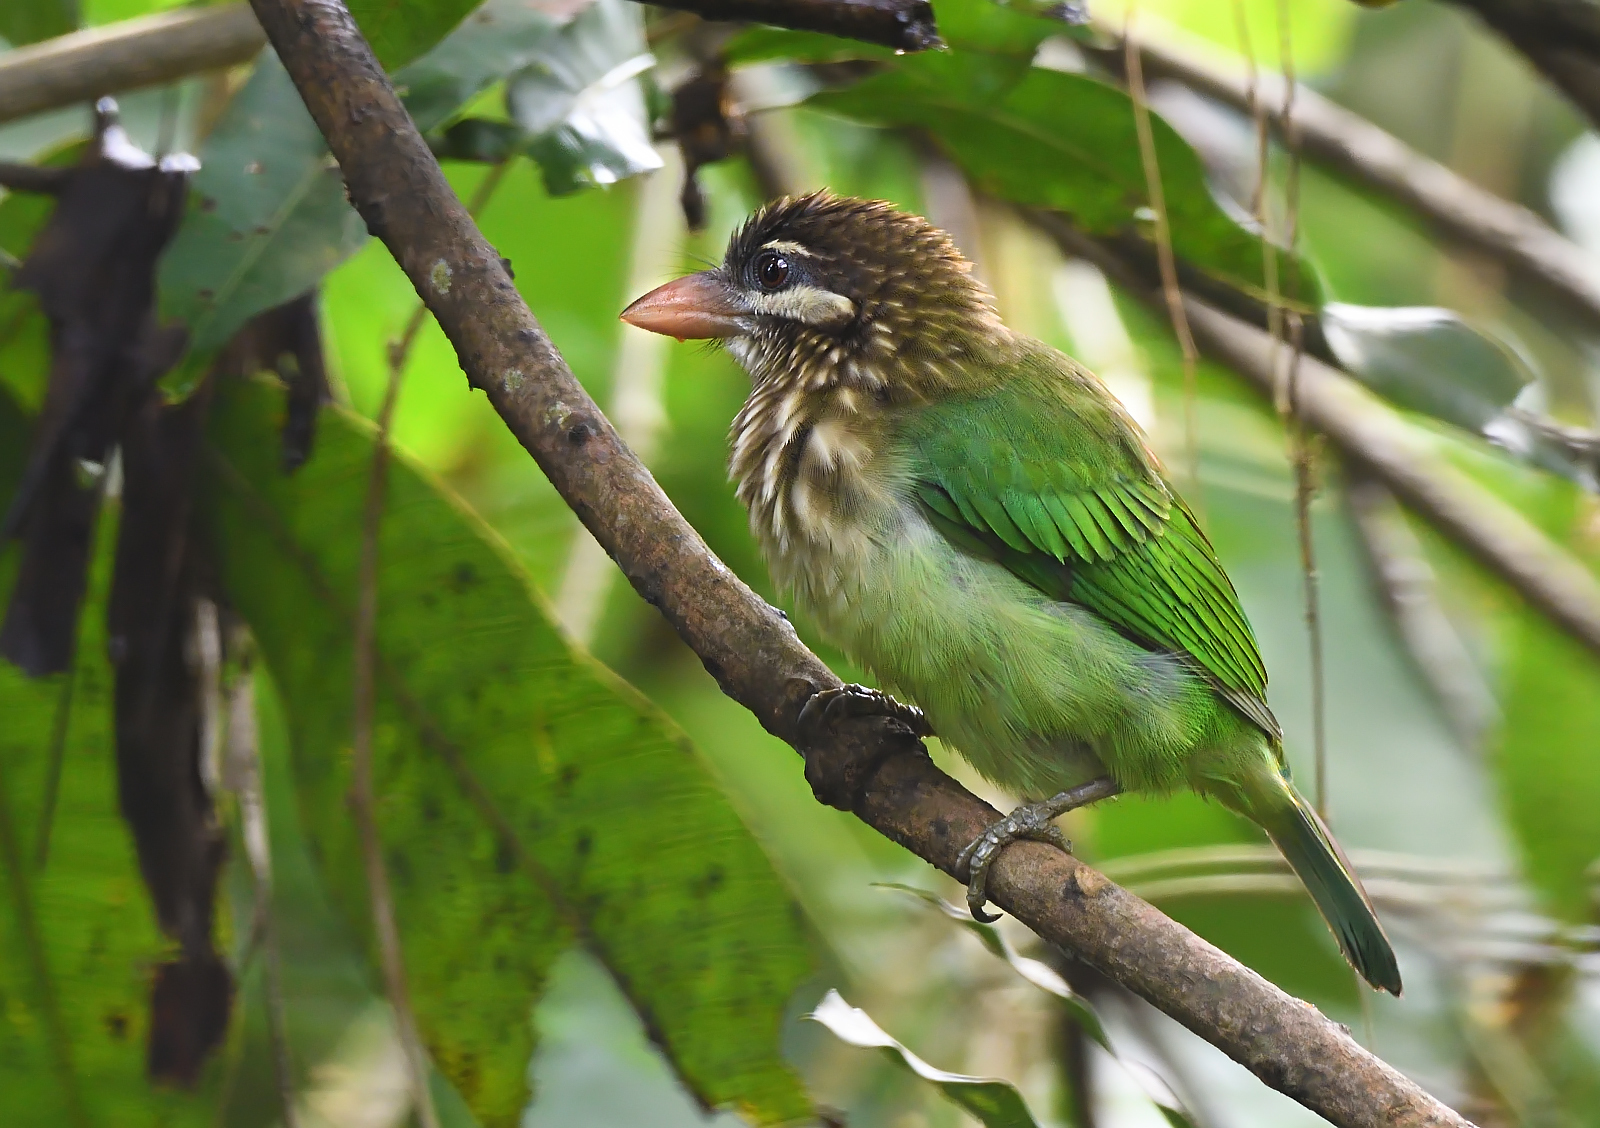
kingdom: Animalia
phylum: Chordata
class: Aves
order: Piciformes
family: Megalaimidae
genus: Psilopogon
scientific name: Psilopogon viridis
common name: White-cheeked barbet
